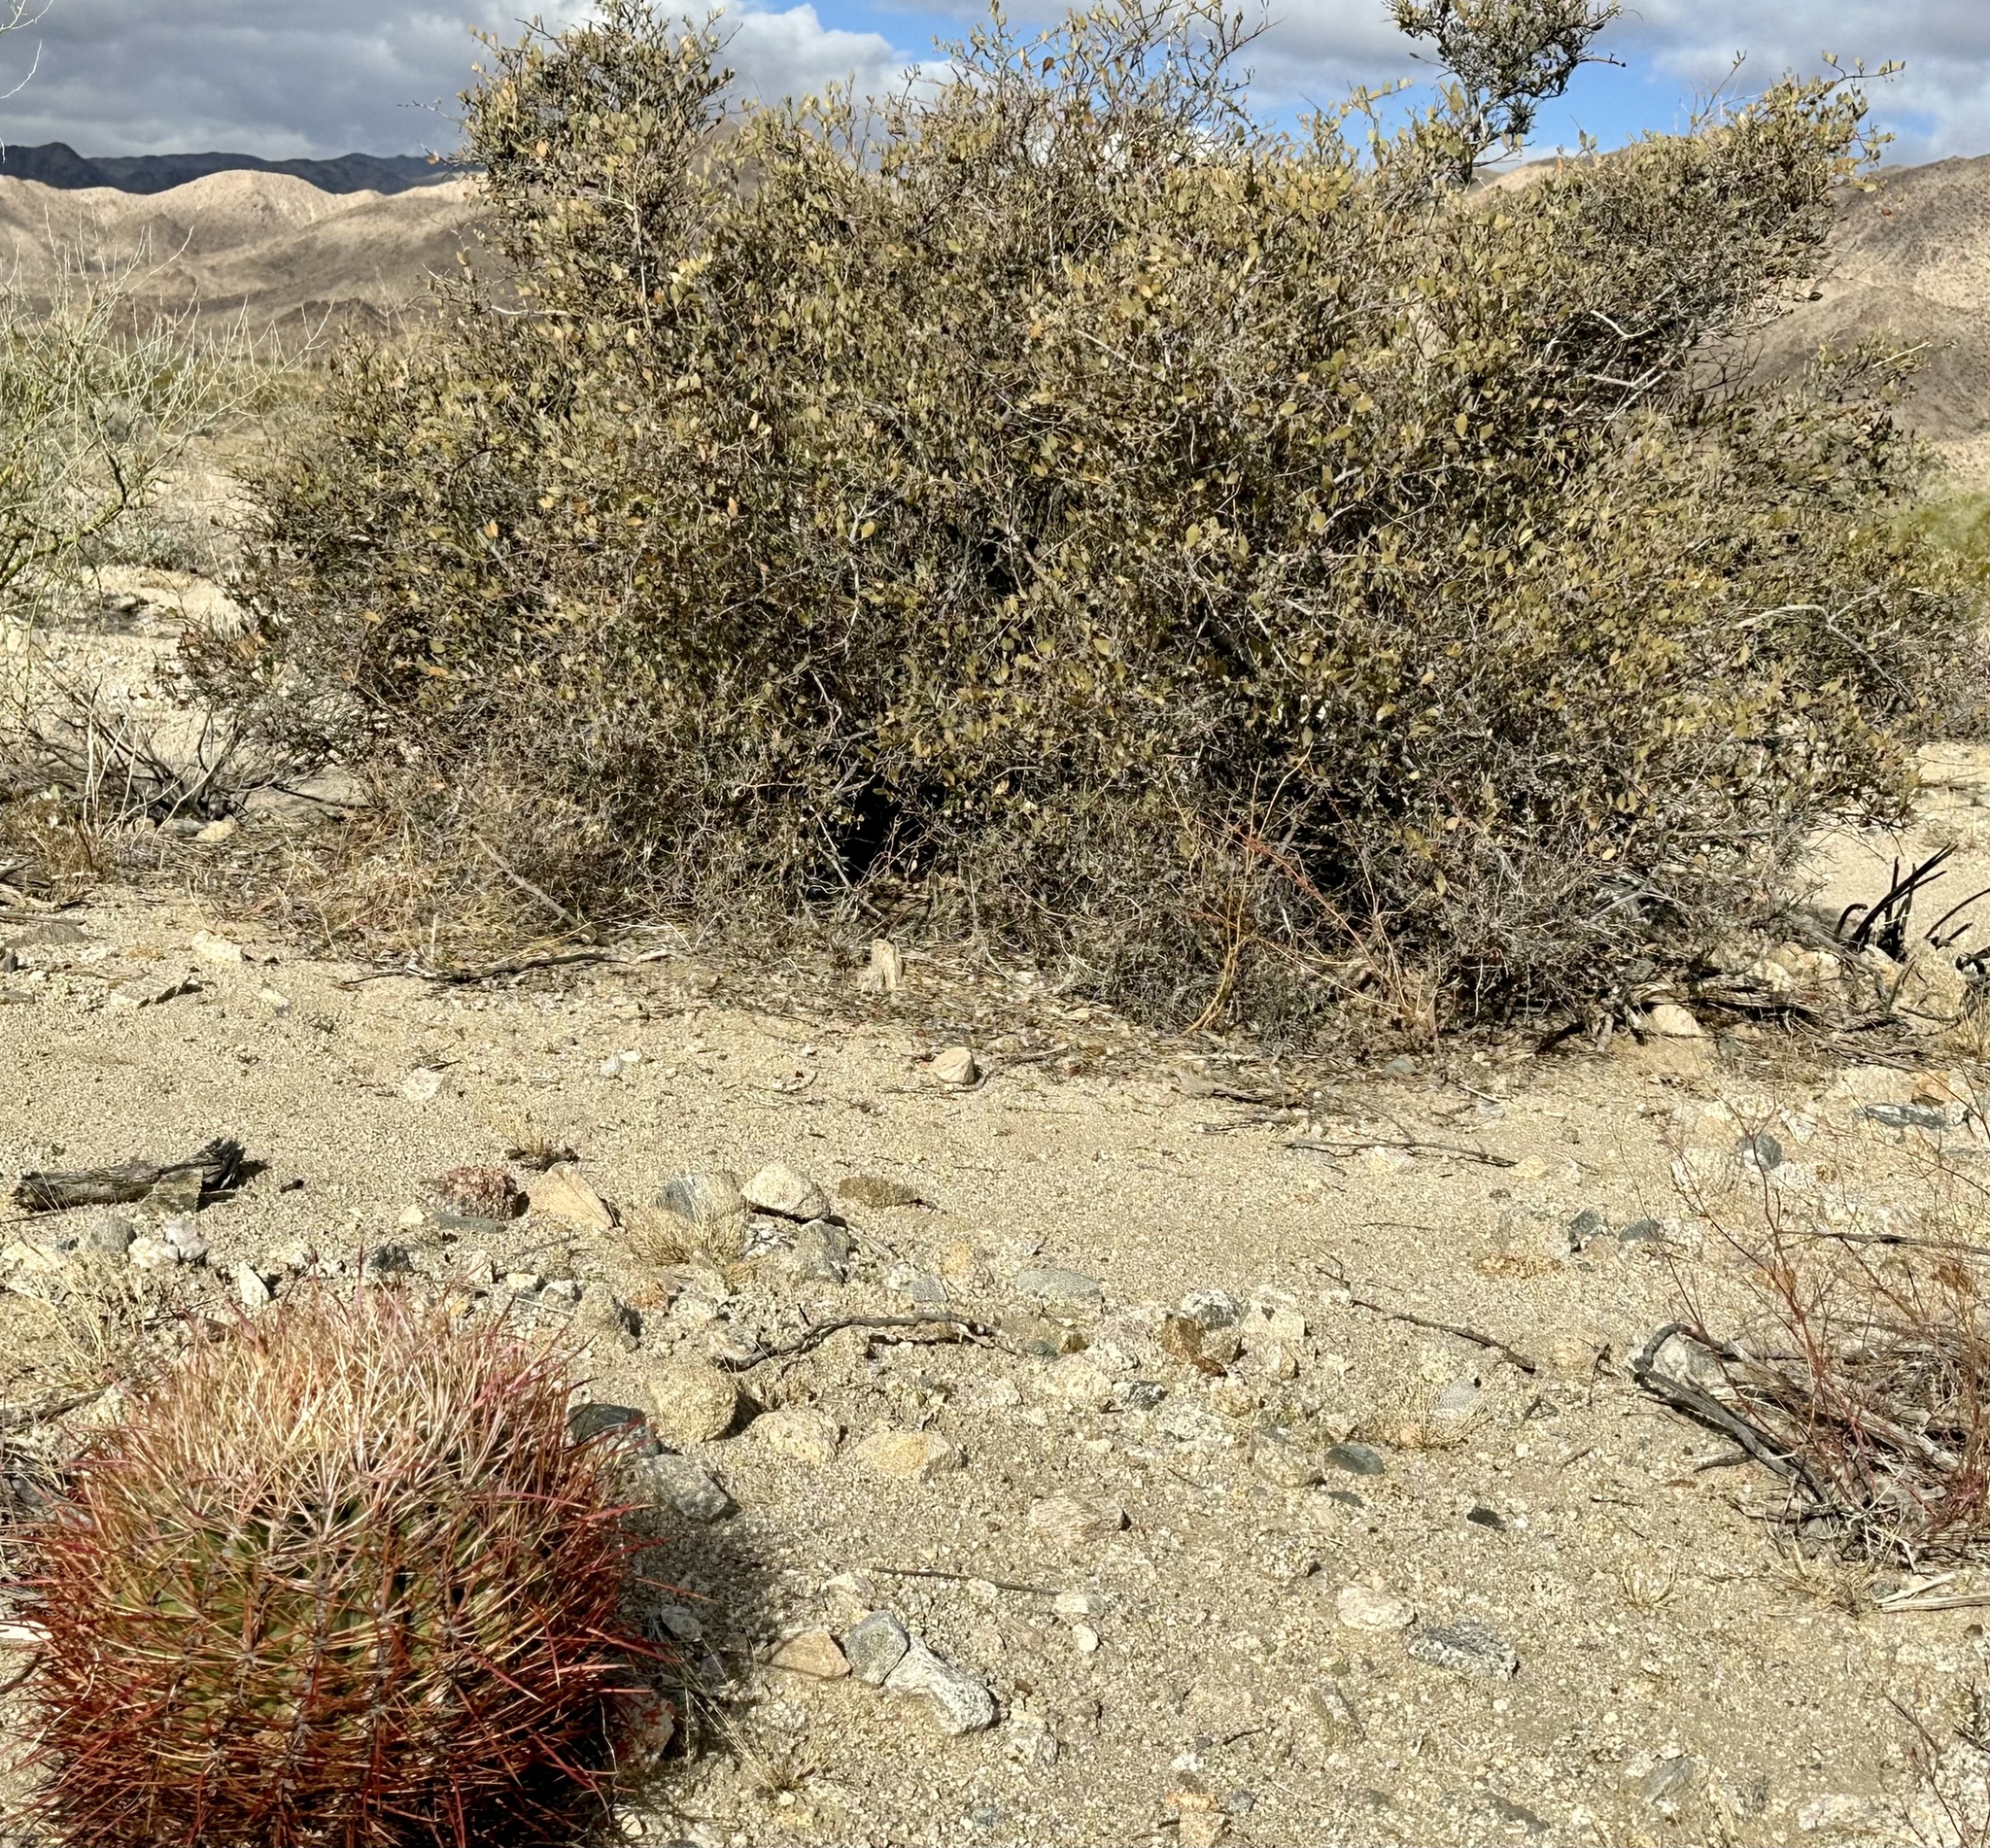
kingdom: Plantae
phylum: Tracheophyta
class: Magnoliopsida
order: Caryophyllales
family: Simmondsiaceae
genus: Simmondsia
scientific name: Simmondsia chinensis
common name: Jojoba
